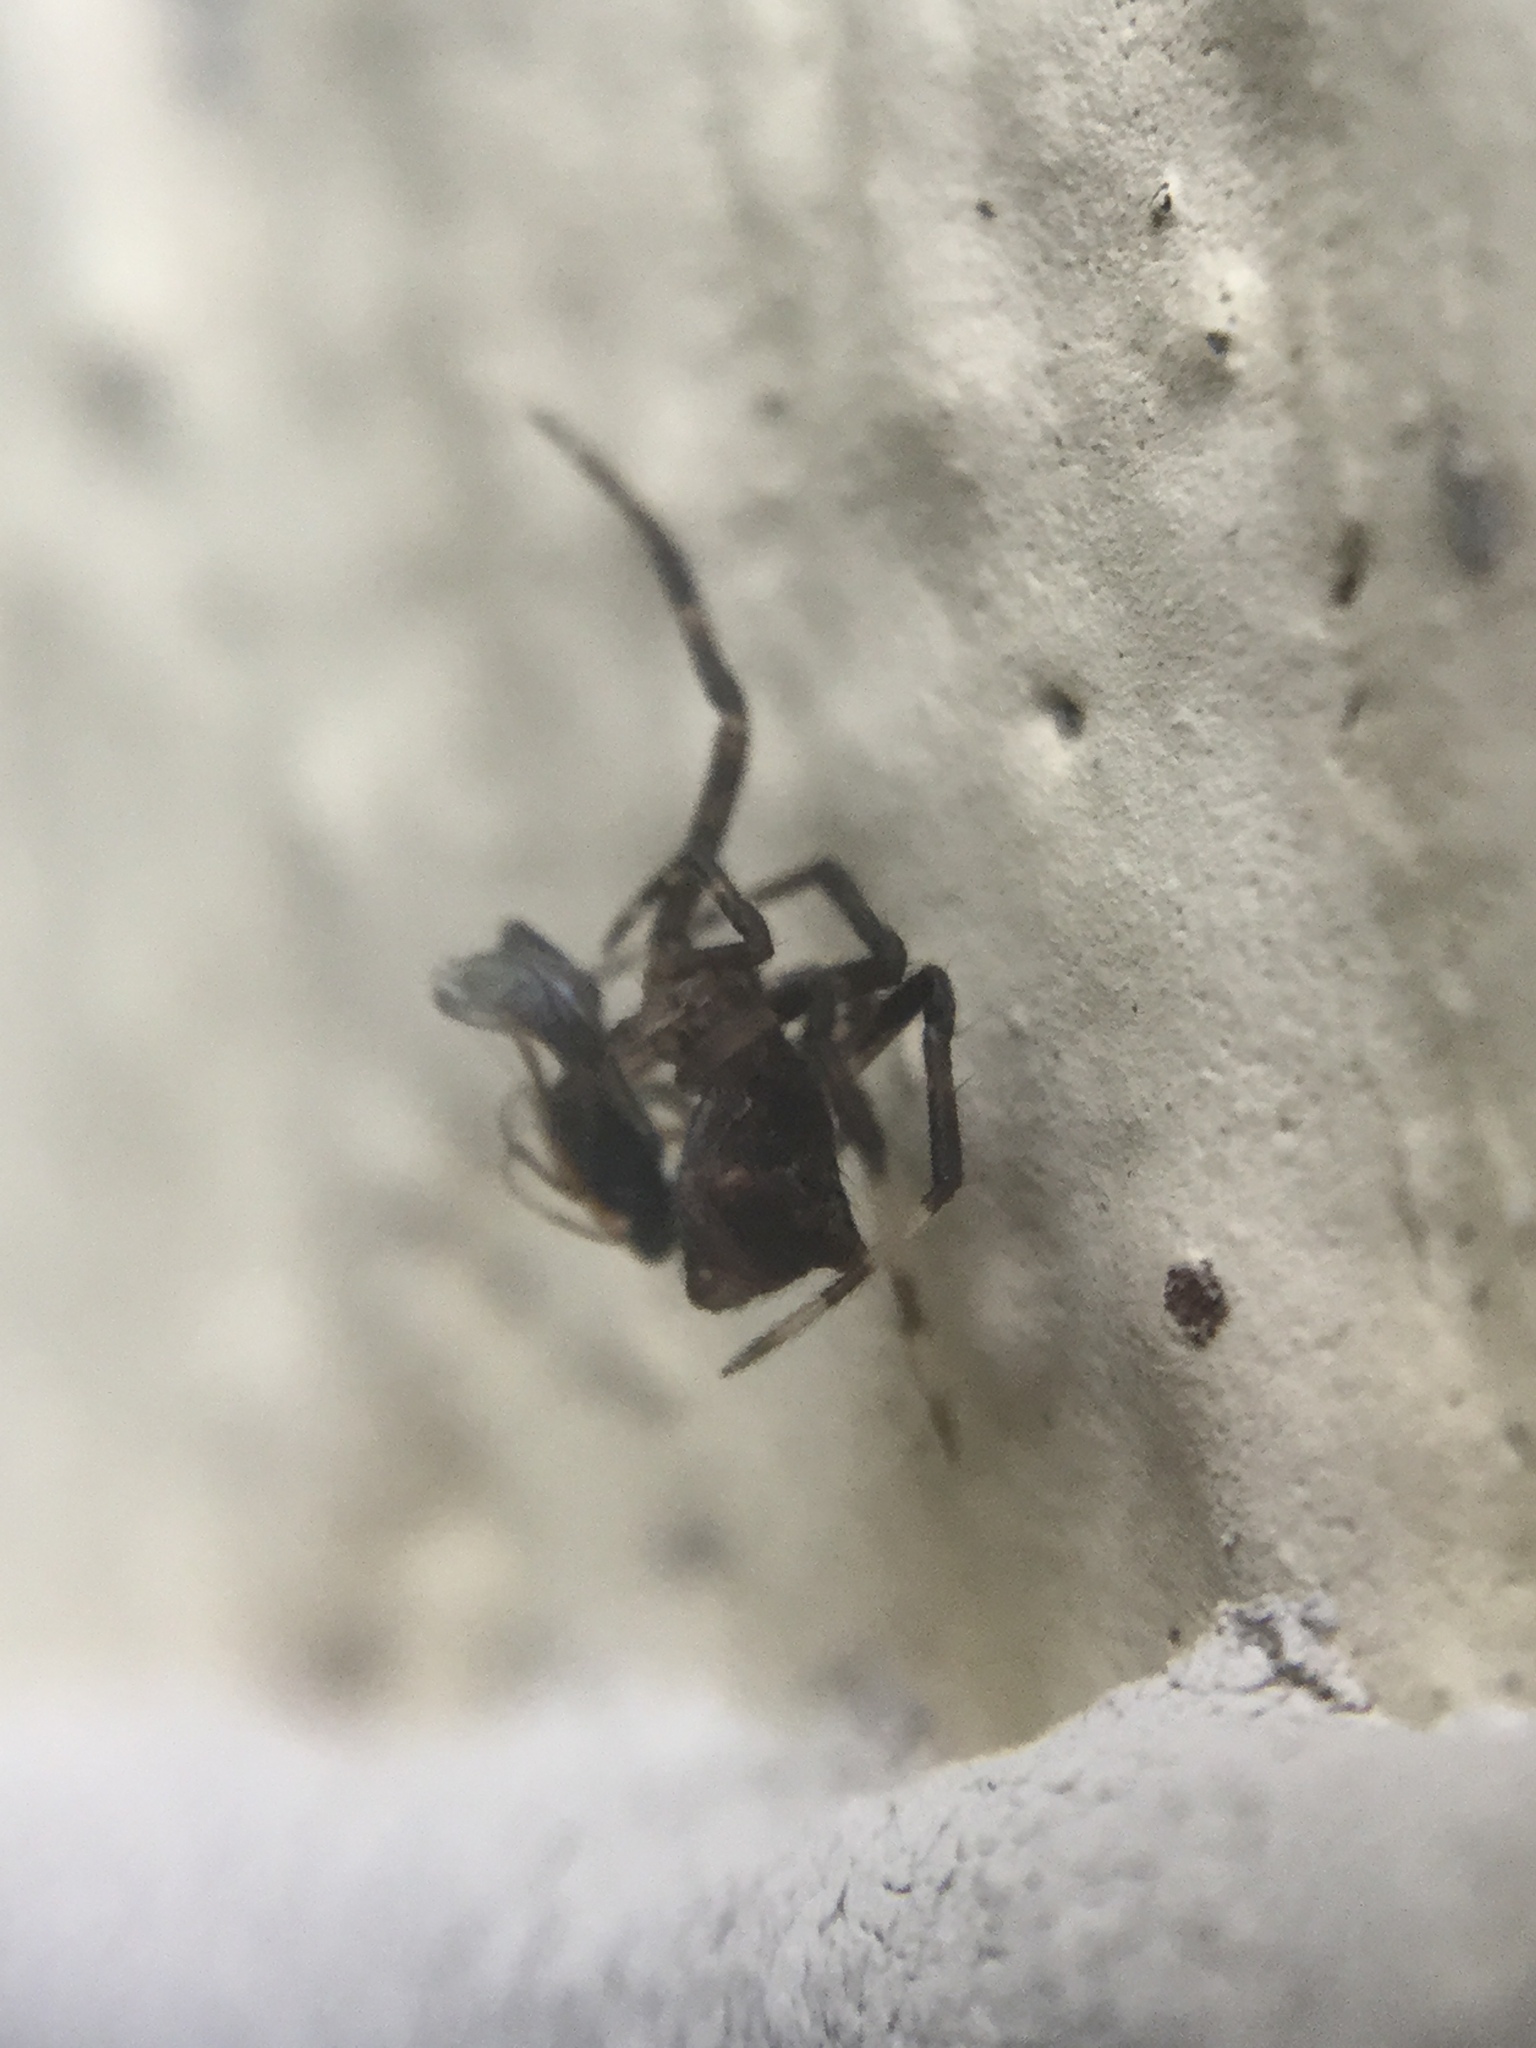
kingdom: Animalia
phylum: Arthropoda
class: Arachnida
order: Araneae
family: Theridiidae
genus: Episinus
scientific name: Episinus amoenus
